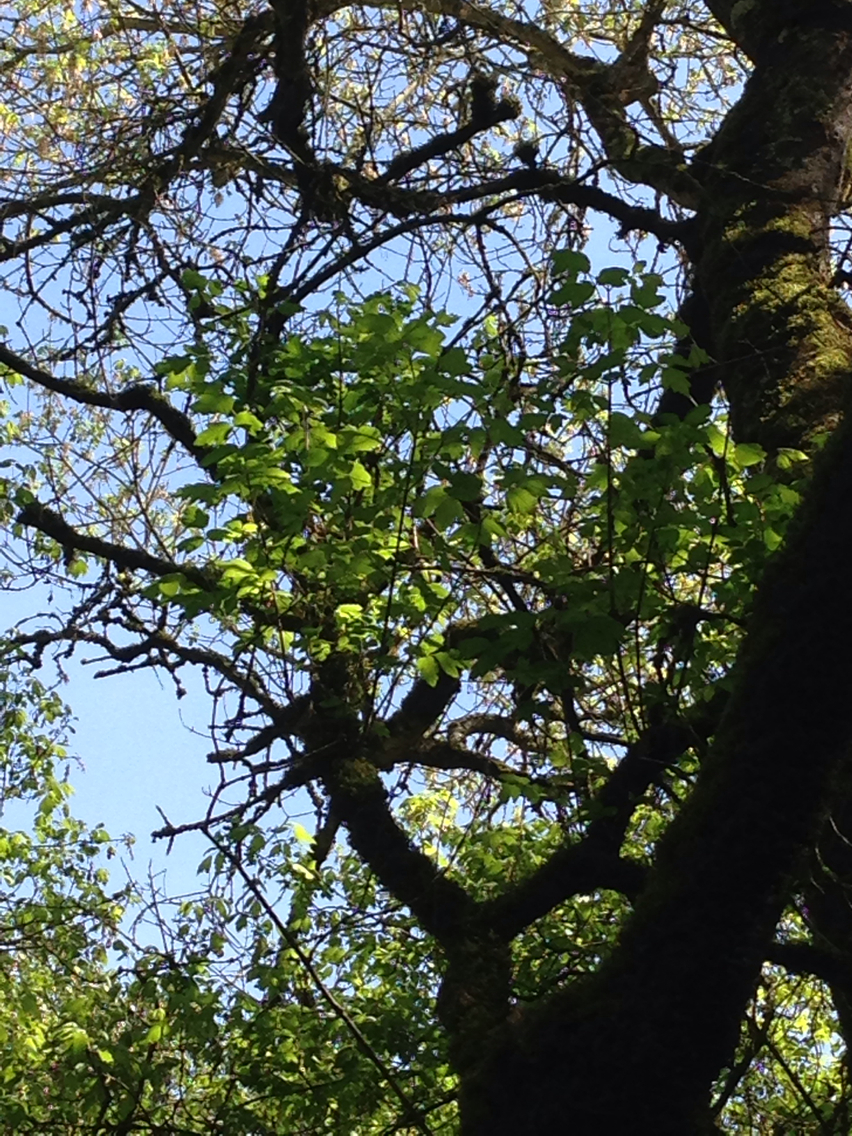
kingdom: Plantae
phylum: Tracheophyta
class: Magnoliopsida
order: Sapindales
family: Sapindaceae
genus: Acer
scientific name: Acer negundo
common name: Ashleaf maple
